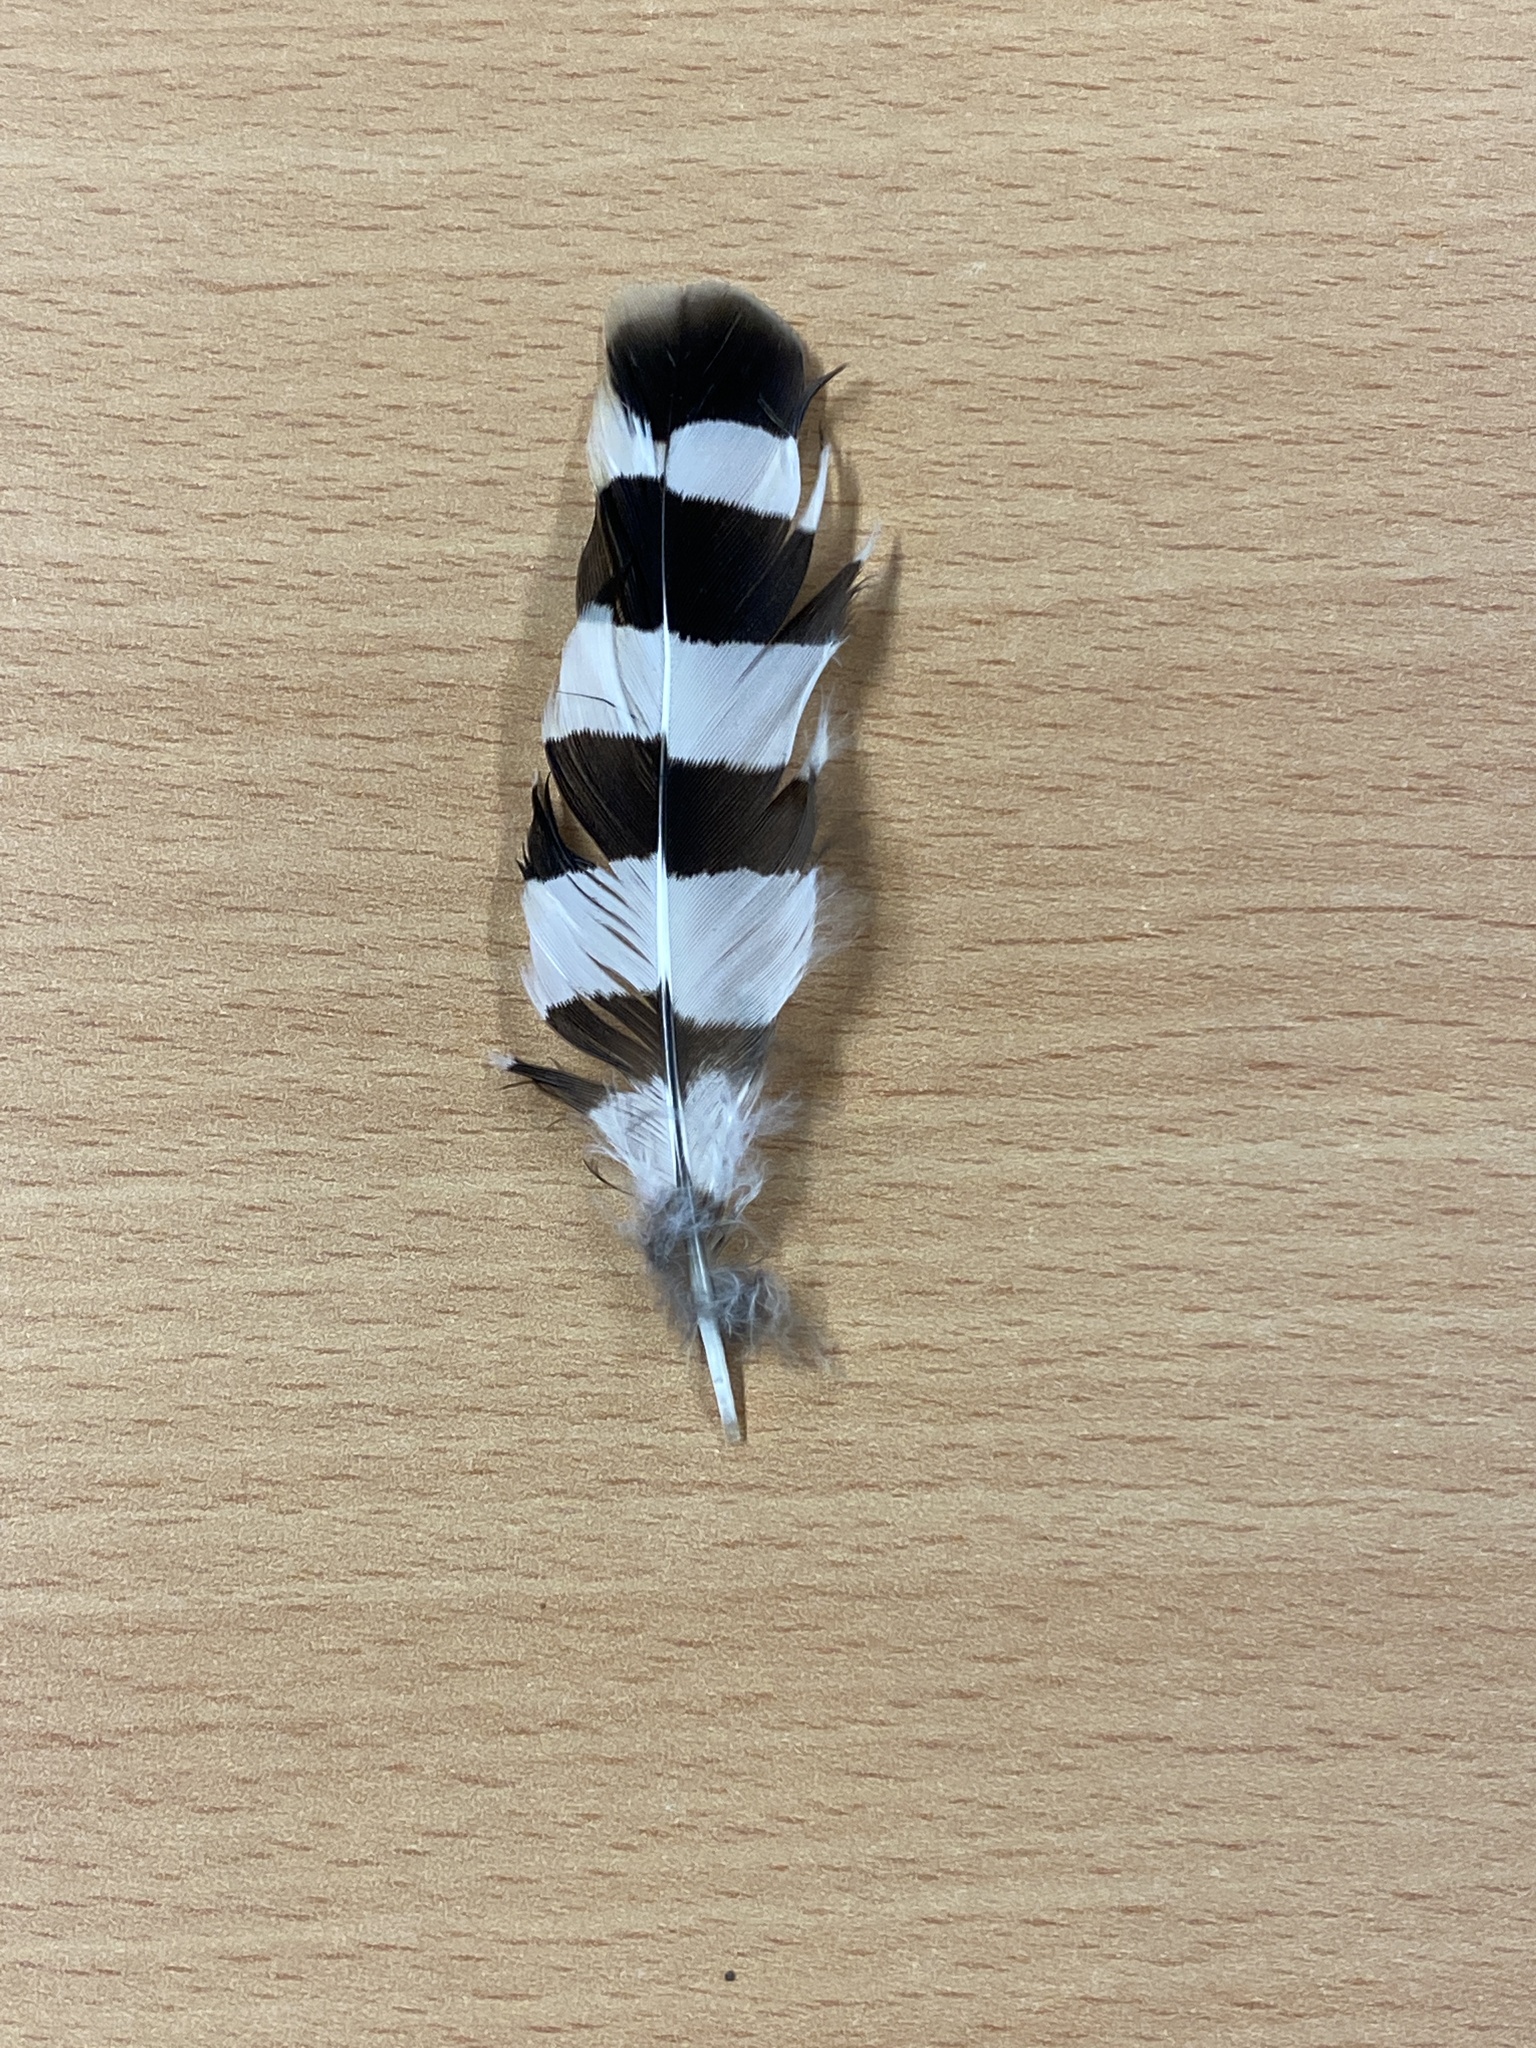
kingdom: Animalia
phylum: Chordata
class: Aves
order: Bucerotiformes
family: Upupidae
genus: Upupa
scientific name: Upupa epops
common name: Eurasian hoopoe
